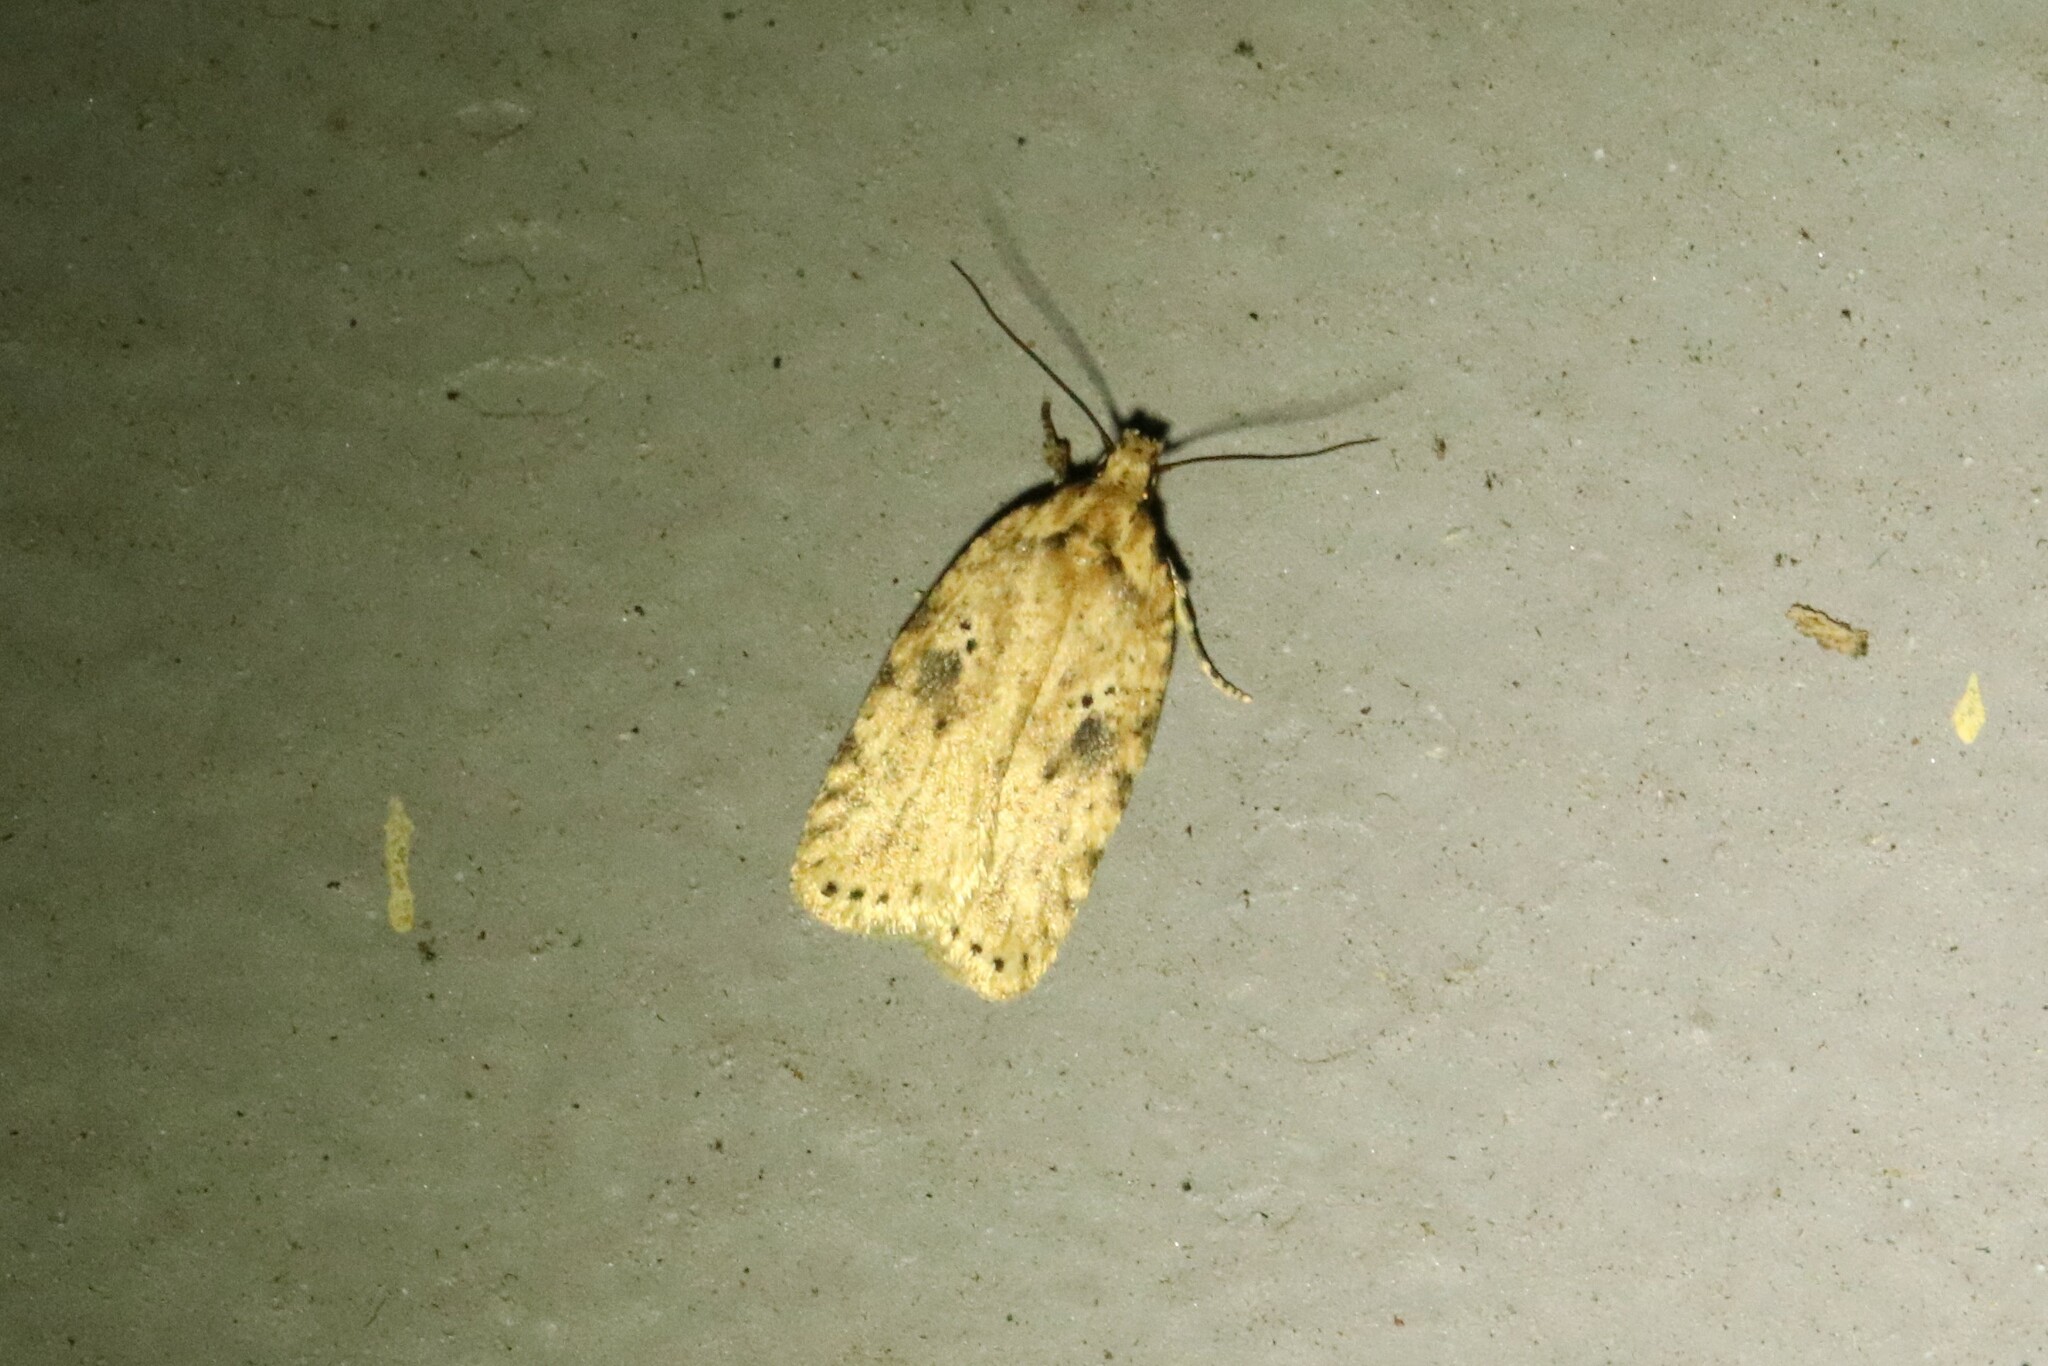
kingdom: Animalia
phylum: Arthropoda
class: Insecta
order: Lepidoptera
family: Depressariidae
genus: Agonopterix
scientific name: Agonopterix canadensis
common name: Canadian agonopterix moth
